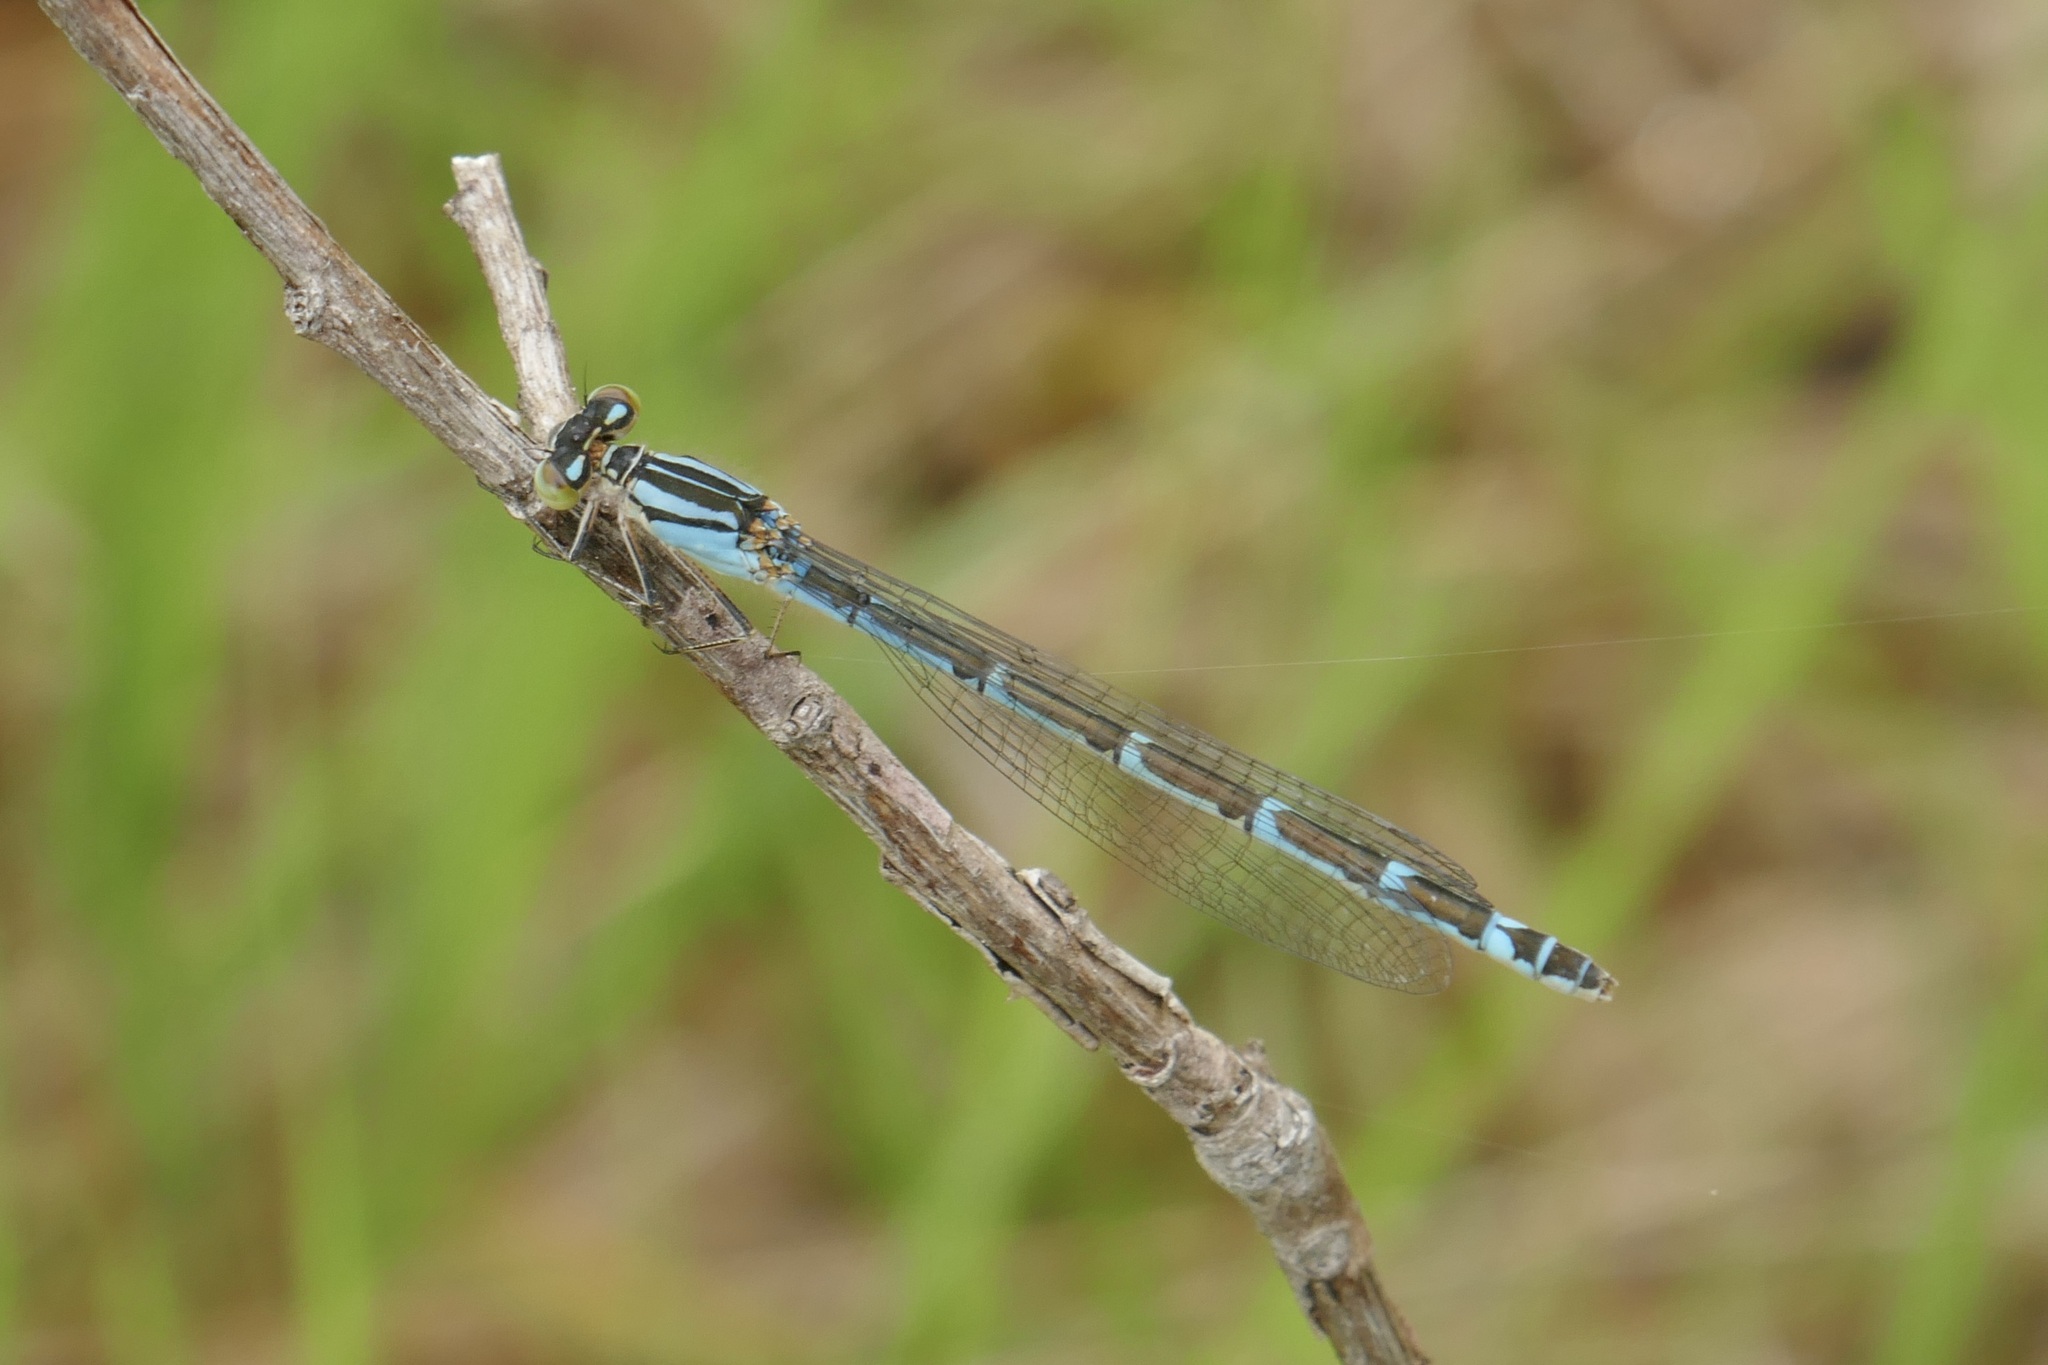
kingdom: Animalia
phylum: Arthropoda
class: Insecta
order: Odonata
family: Coenagrionidae
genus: Enallagma
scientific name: Enallagma cyathigerum
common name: Common blue damselfly
